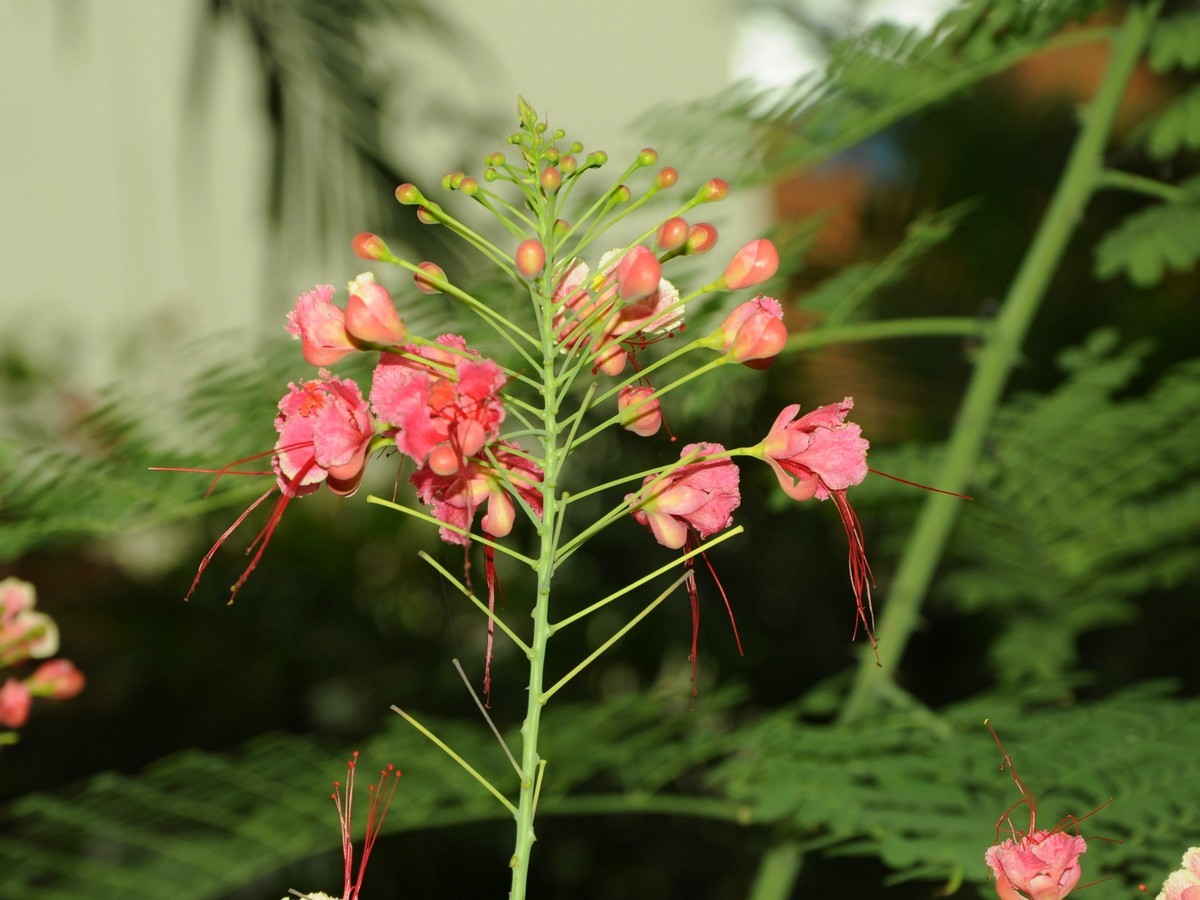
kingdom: Plantae
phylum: Tracheophyta
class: Magnoliopsida
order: Fabales
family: Fabaceae
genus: Caesalpinia
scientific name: Caesalpinia pulcherrima
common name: Pride-of-barbados
